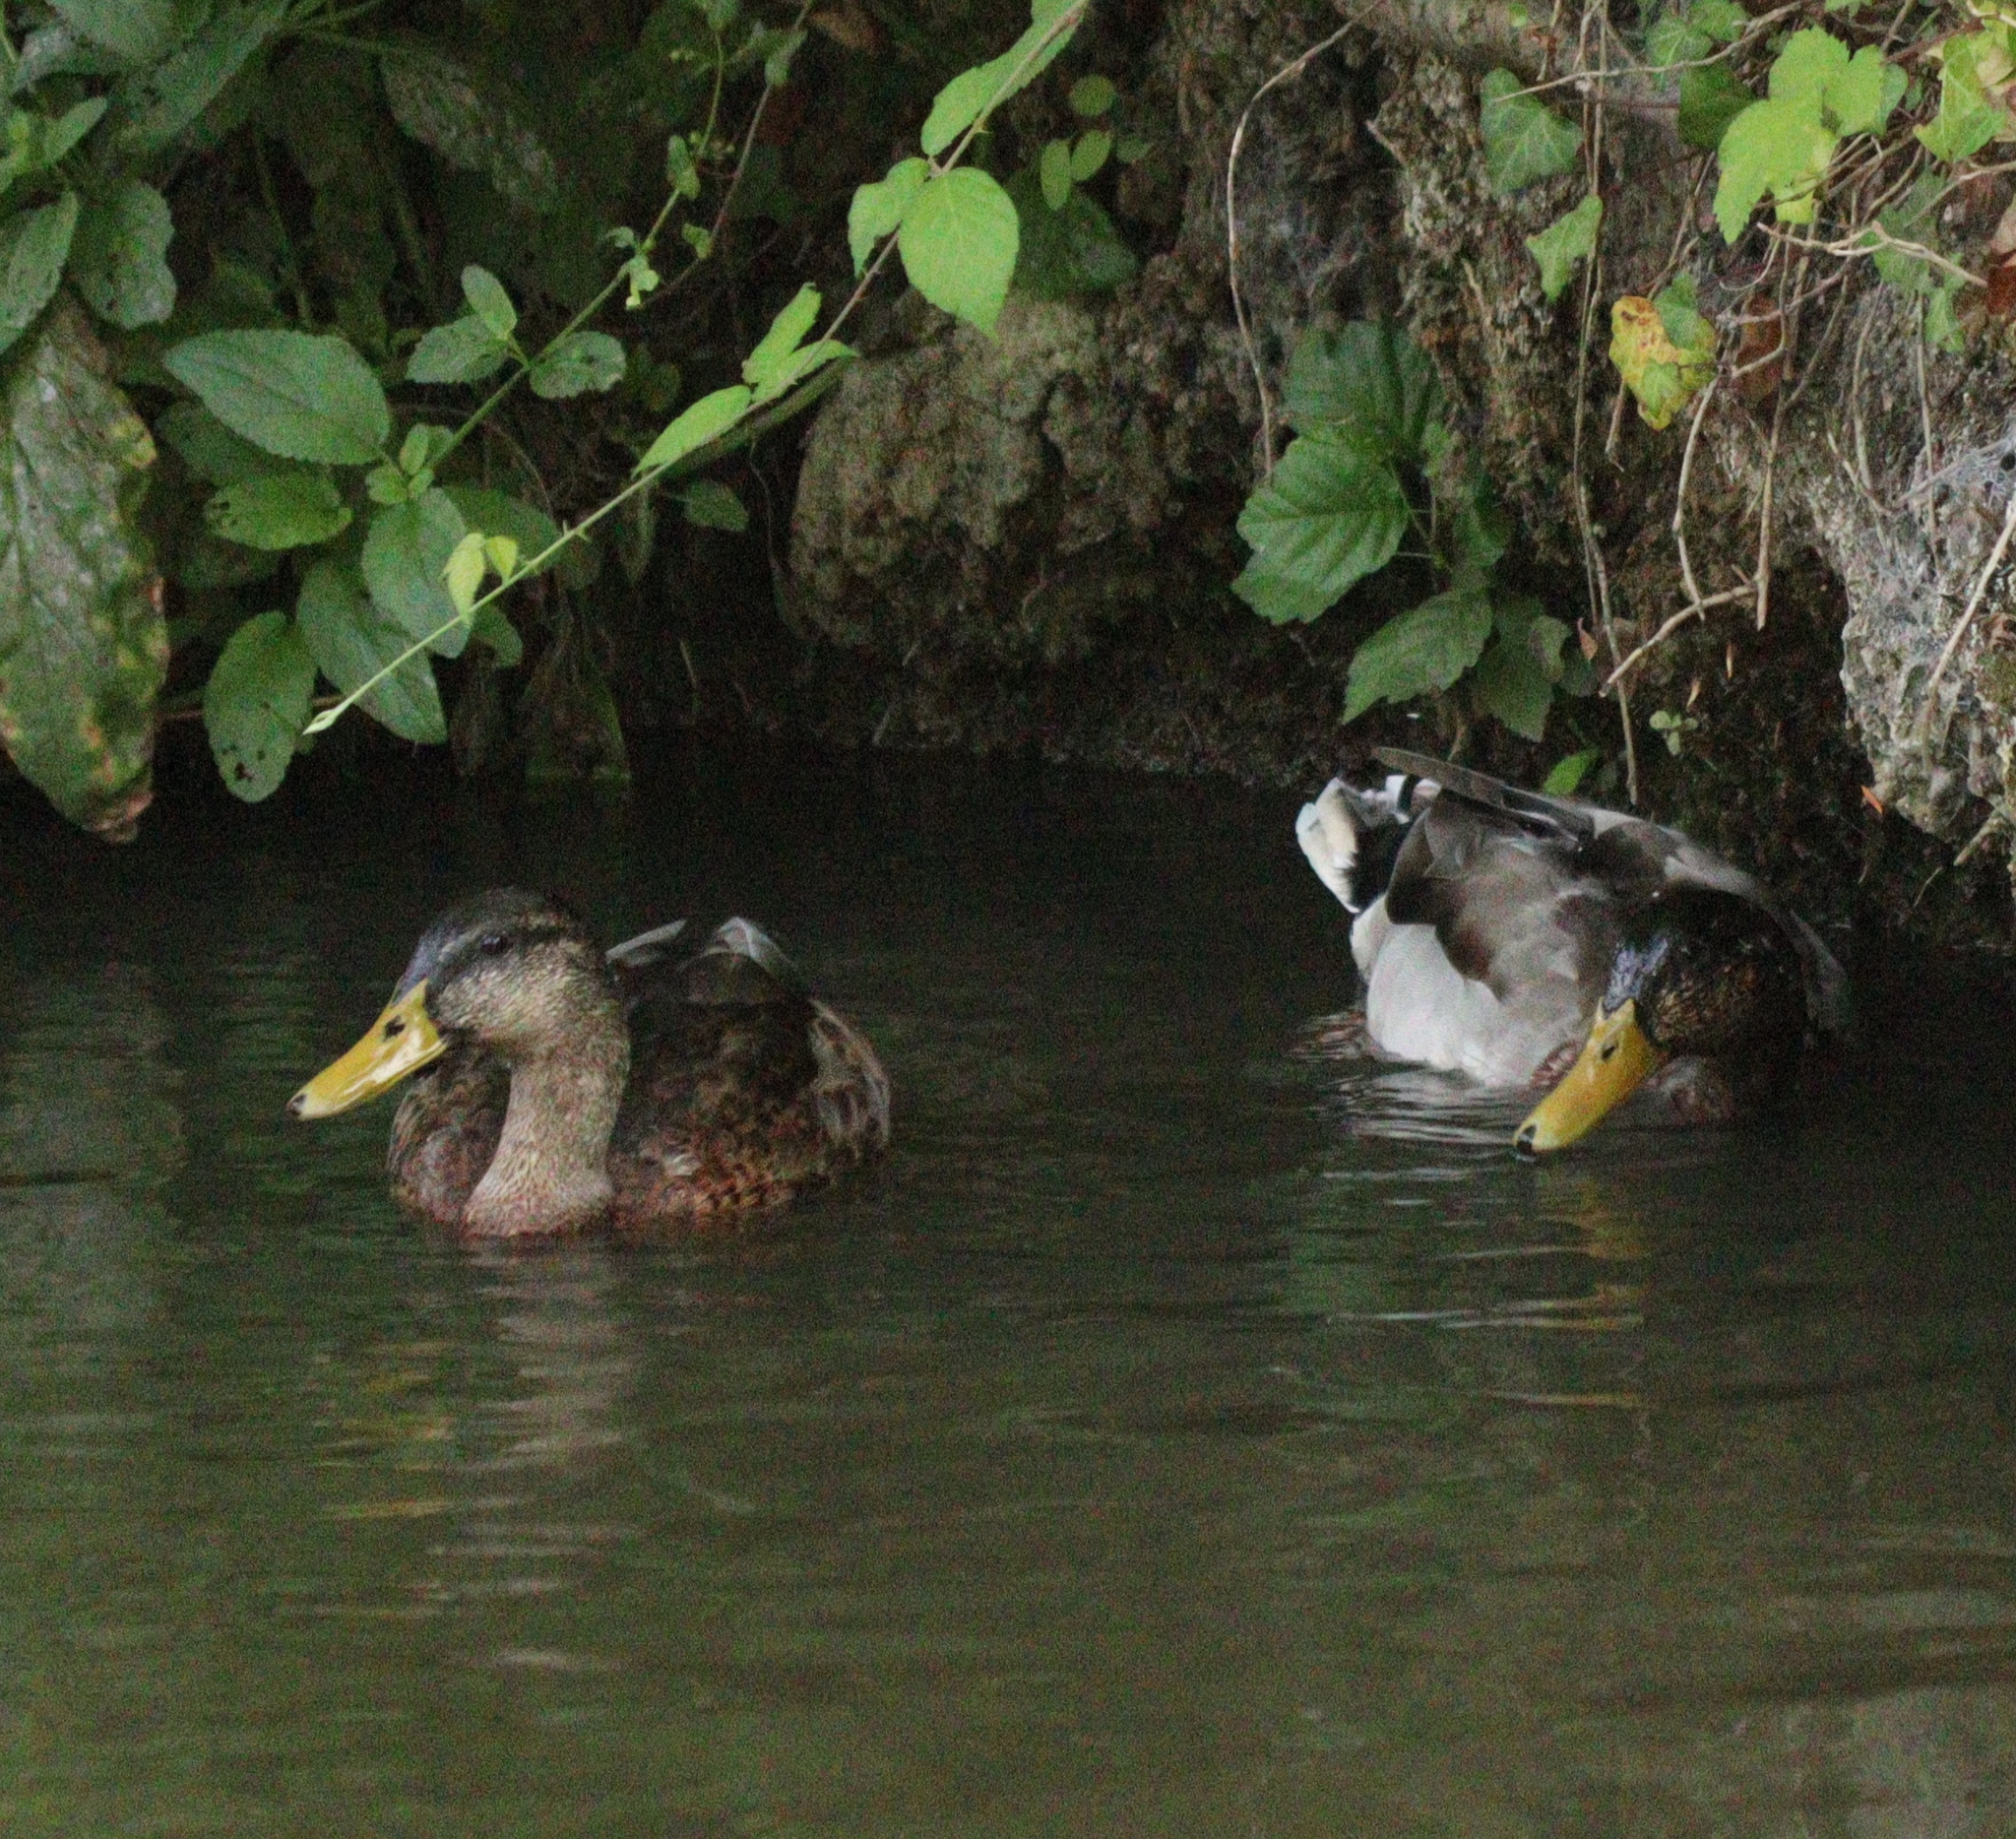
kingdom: Animalia
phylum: Chordata
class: Aves
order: Anseriformes
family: Anatidae
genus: Anas
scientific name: Anas platyrhynchos
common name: Mallard
